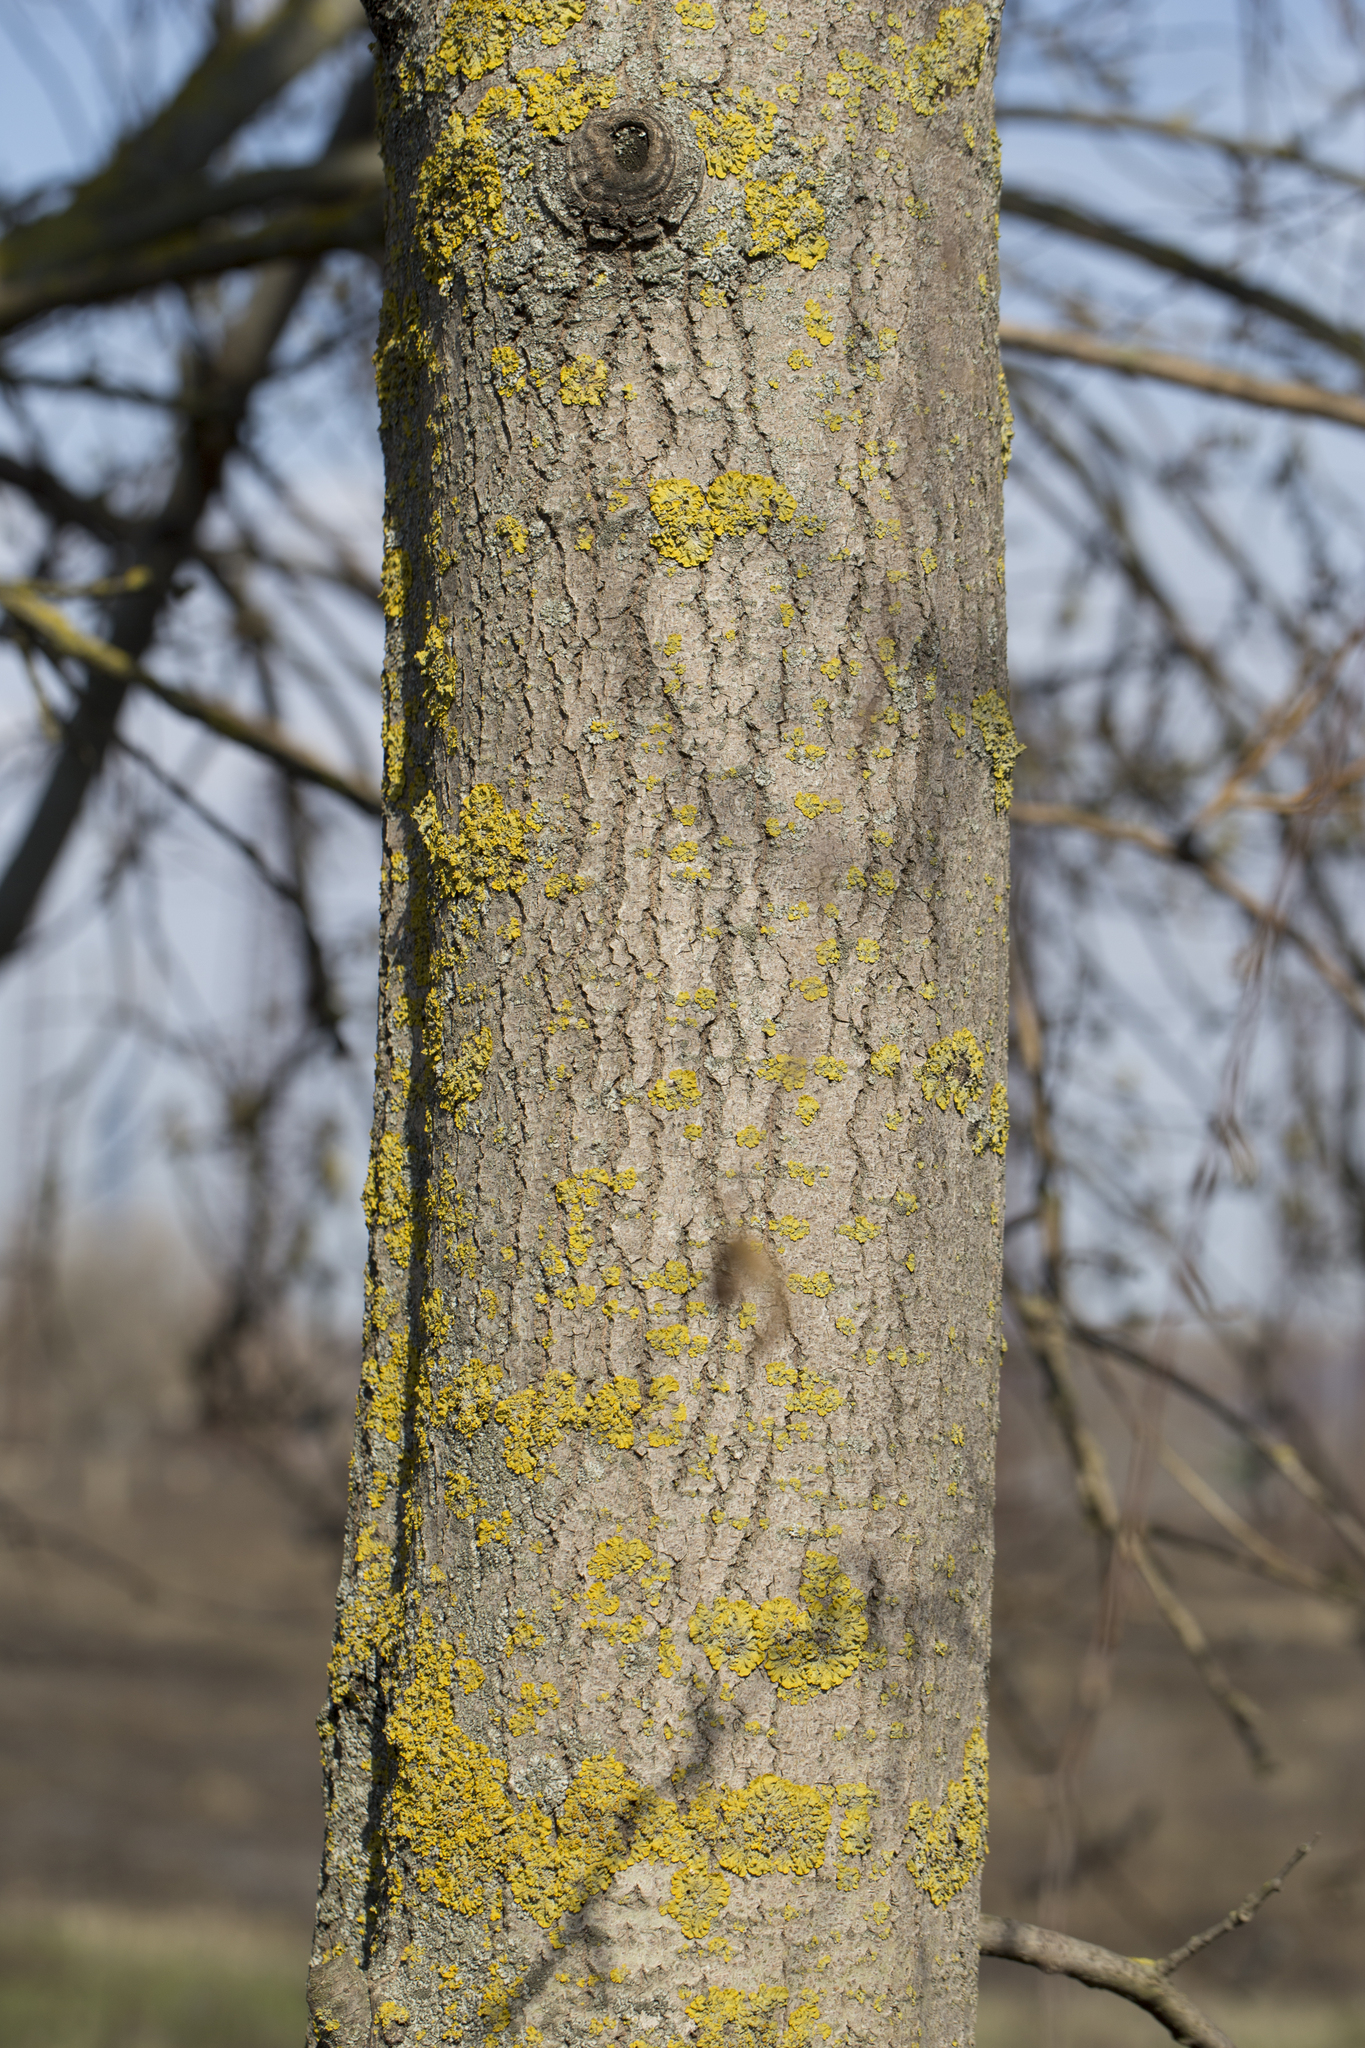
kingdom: Plantae
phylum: Tracheophyta
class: Magnoliopsida
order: Malpighiales
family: Salicaceae
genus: Populus
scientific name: Populus tremula
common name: European aspen
